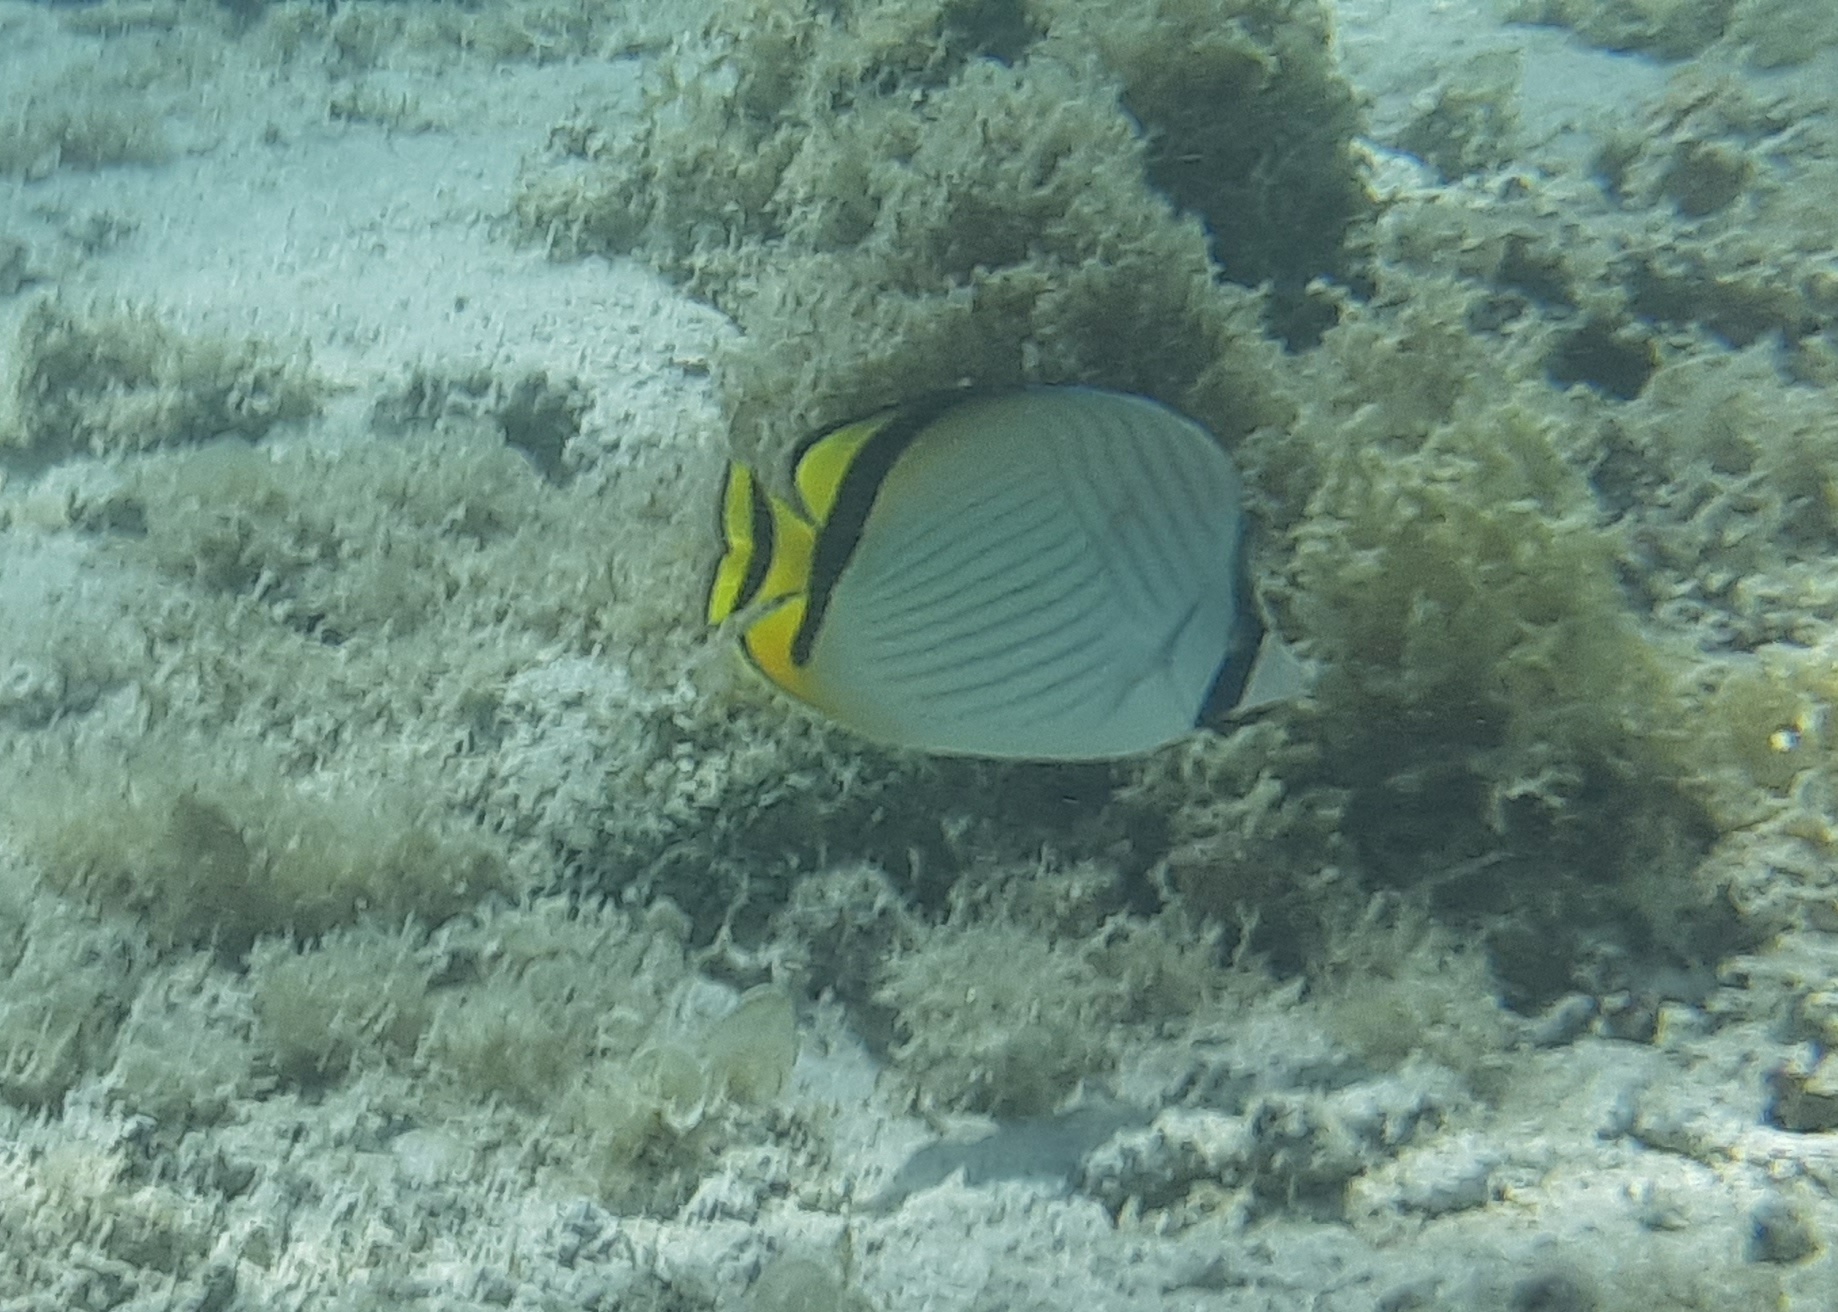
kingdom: Animalia
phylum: Chordata
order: Perciformes
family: Chaetodontidae
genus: Chaetodon
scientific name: Chaetodon vagabundus
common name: Vagabond butterflyfish
